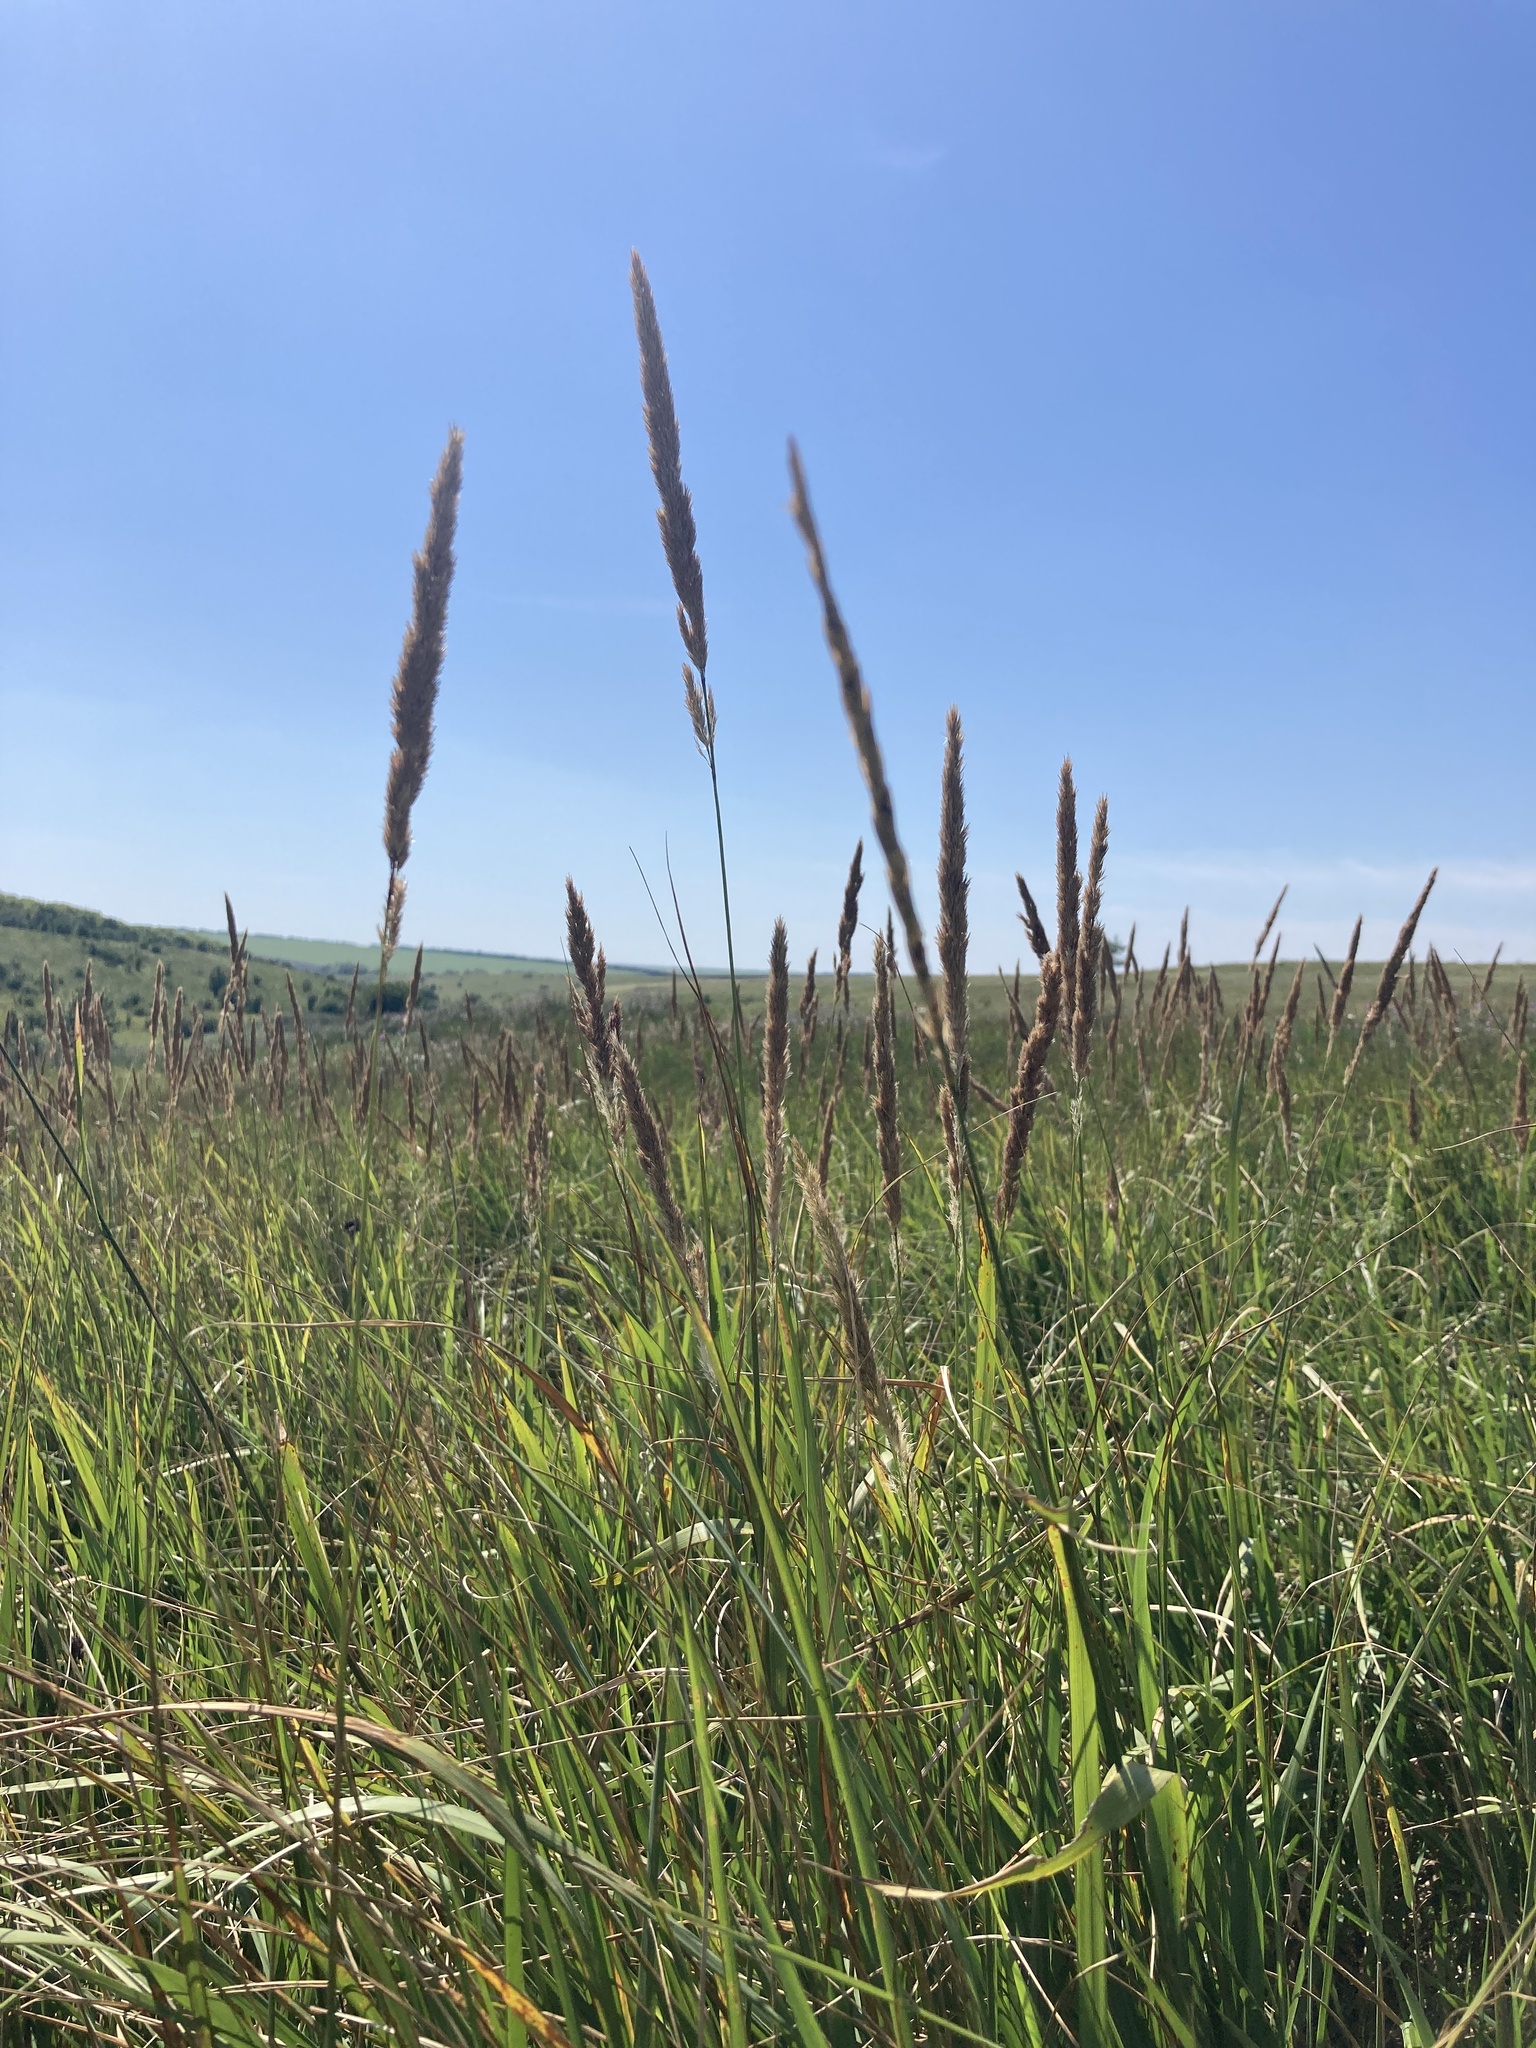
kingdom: Plantae
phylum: Tracheophyta
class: Liliopsida
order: Poales
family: Poaceae
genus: Calamagrostis
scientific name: Calamagrostis epigejos
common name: Wood small-reed
